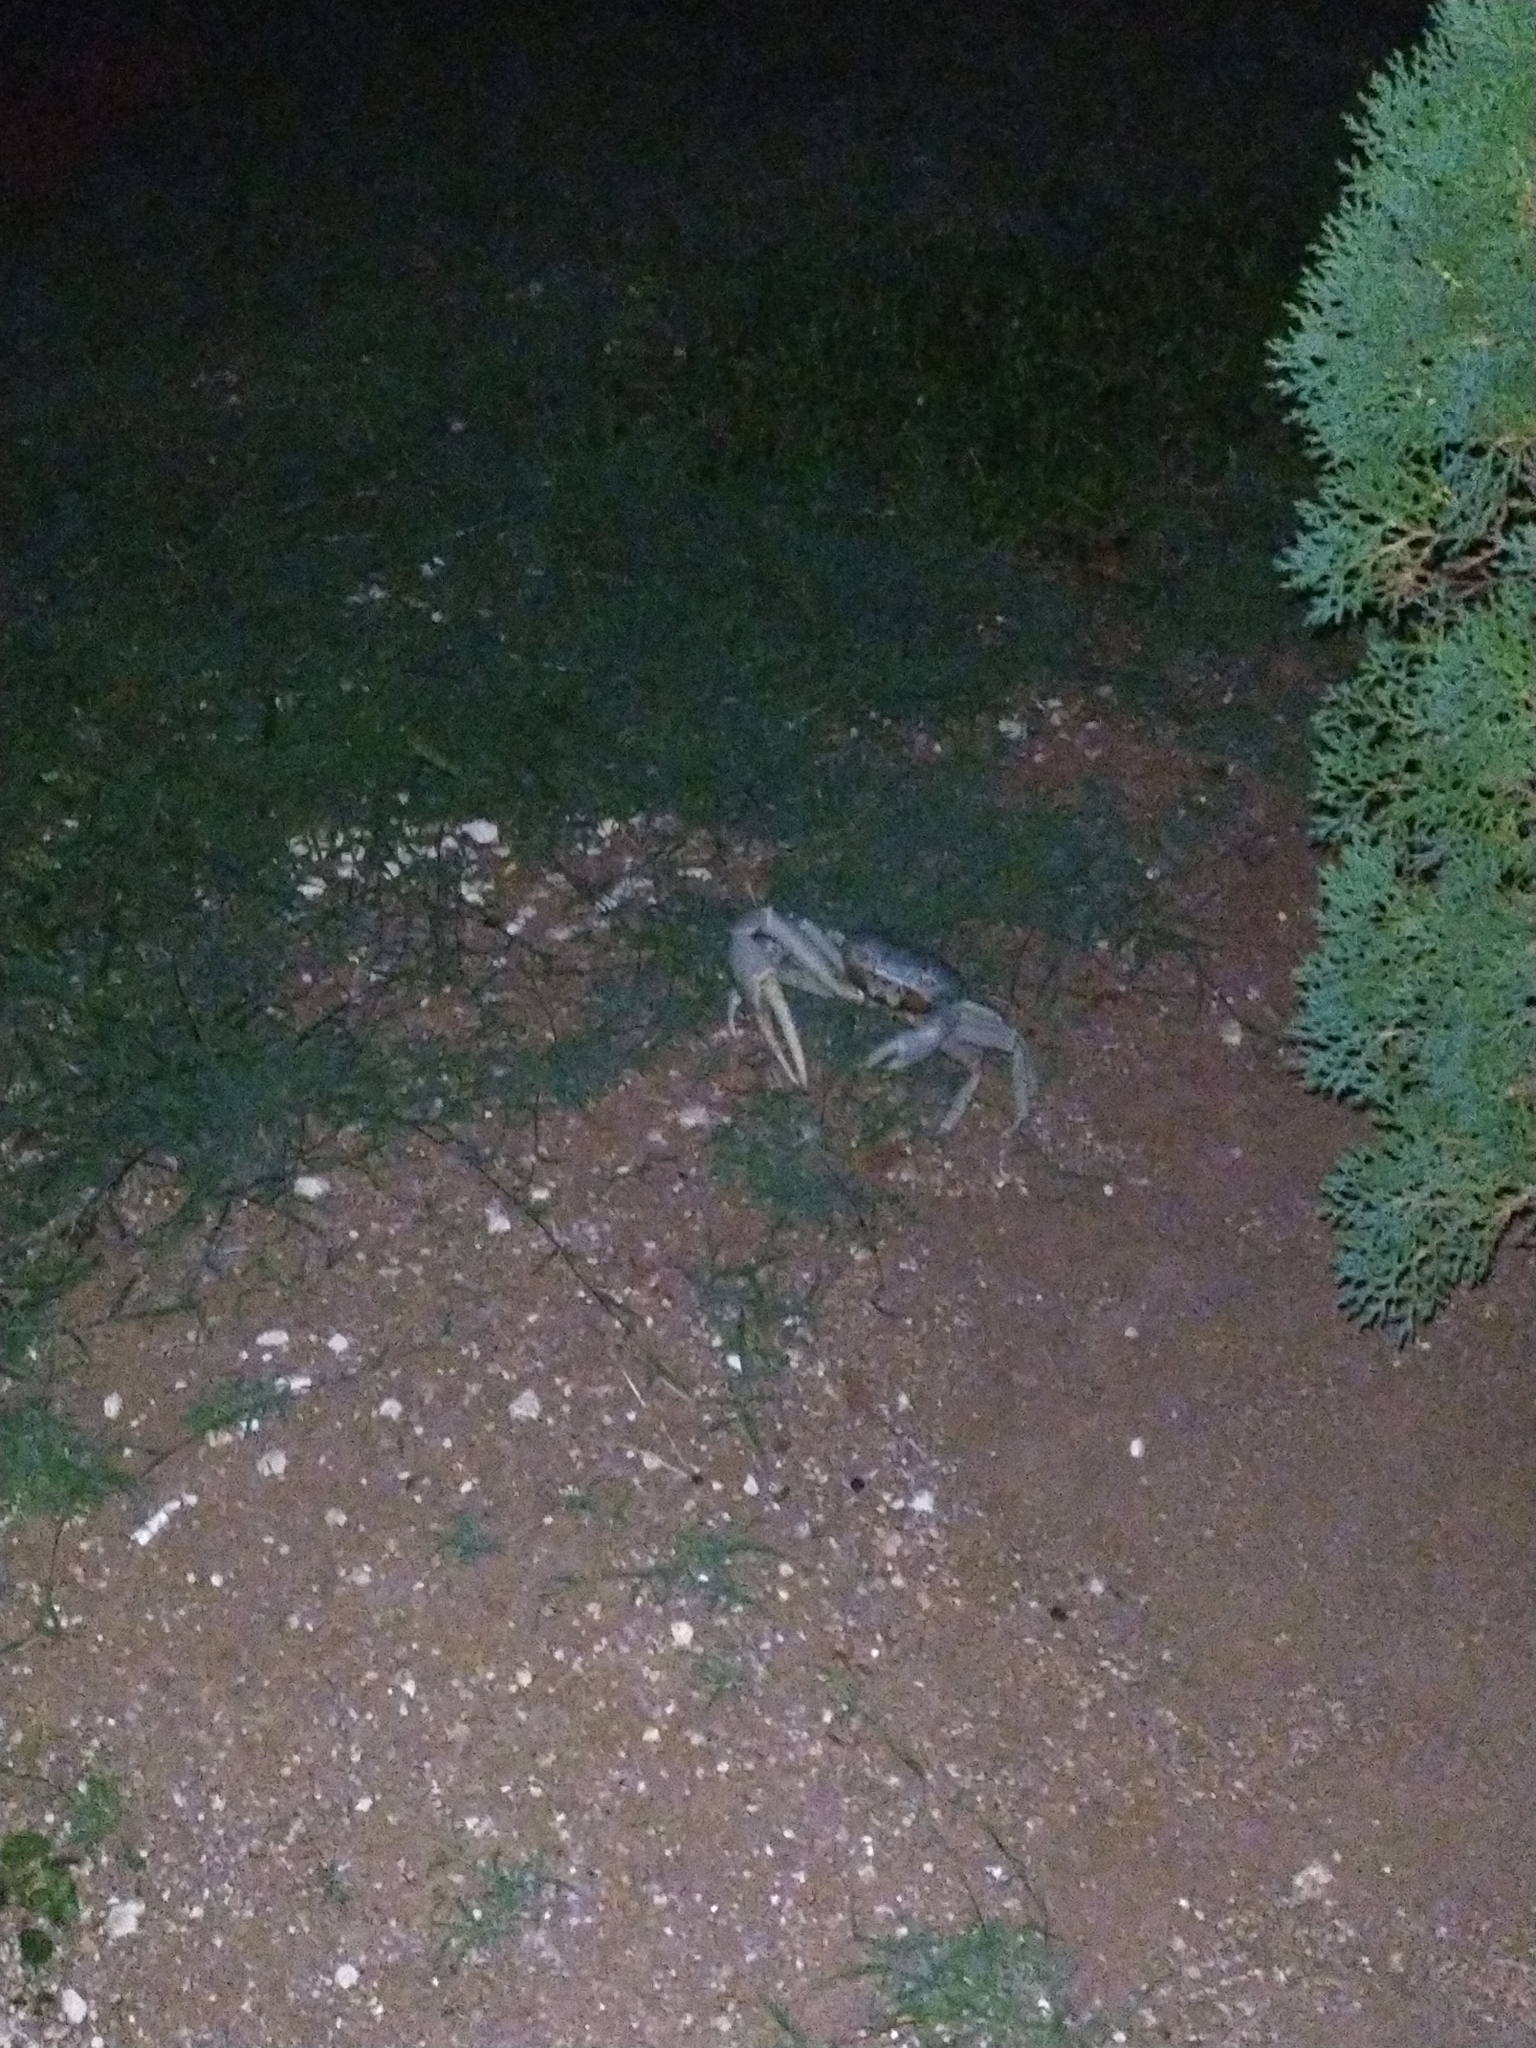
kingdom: Animalia
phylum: Arthropoda
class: Malacostraca
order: Decapoda
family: Gecarcinidae
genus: Cardisoma
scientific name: Cardisoma guanhumi
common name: Great land crab
